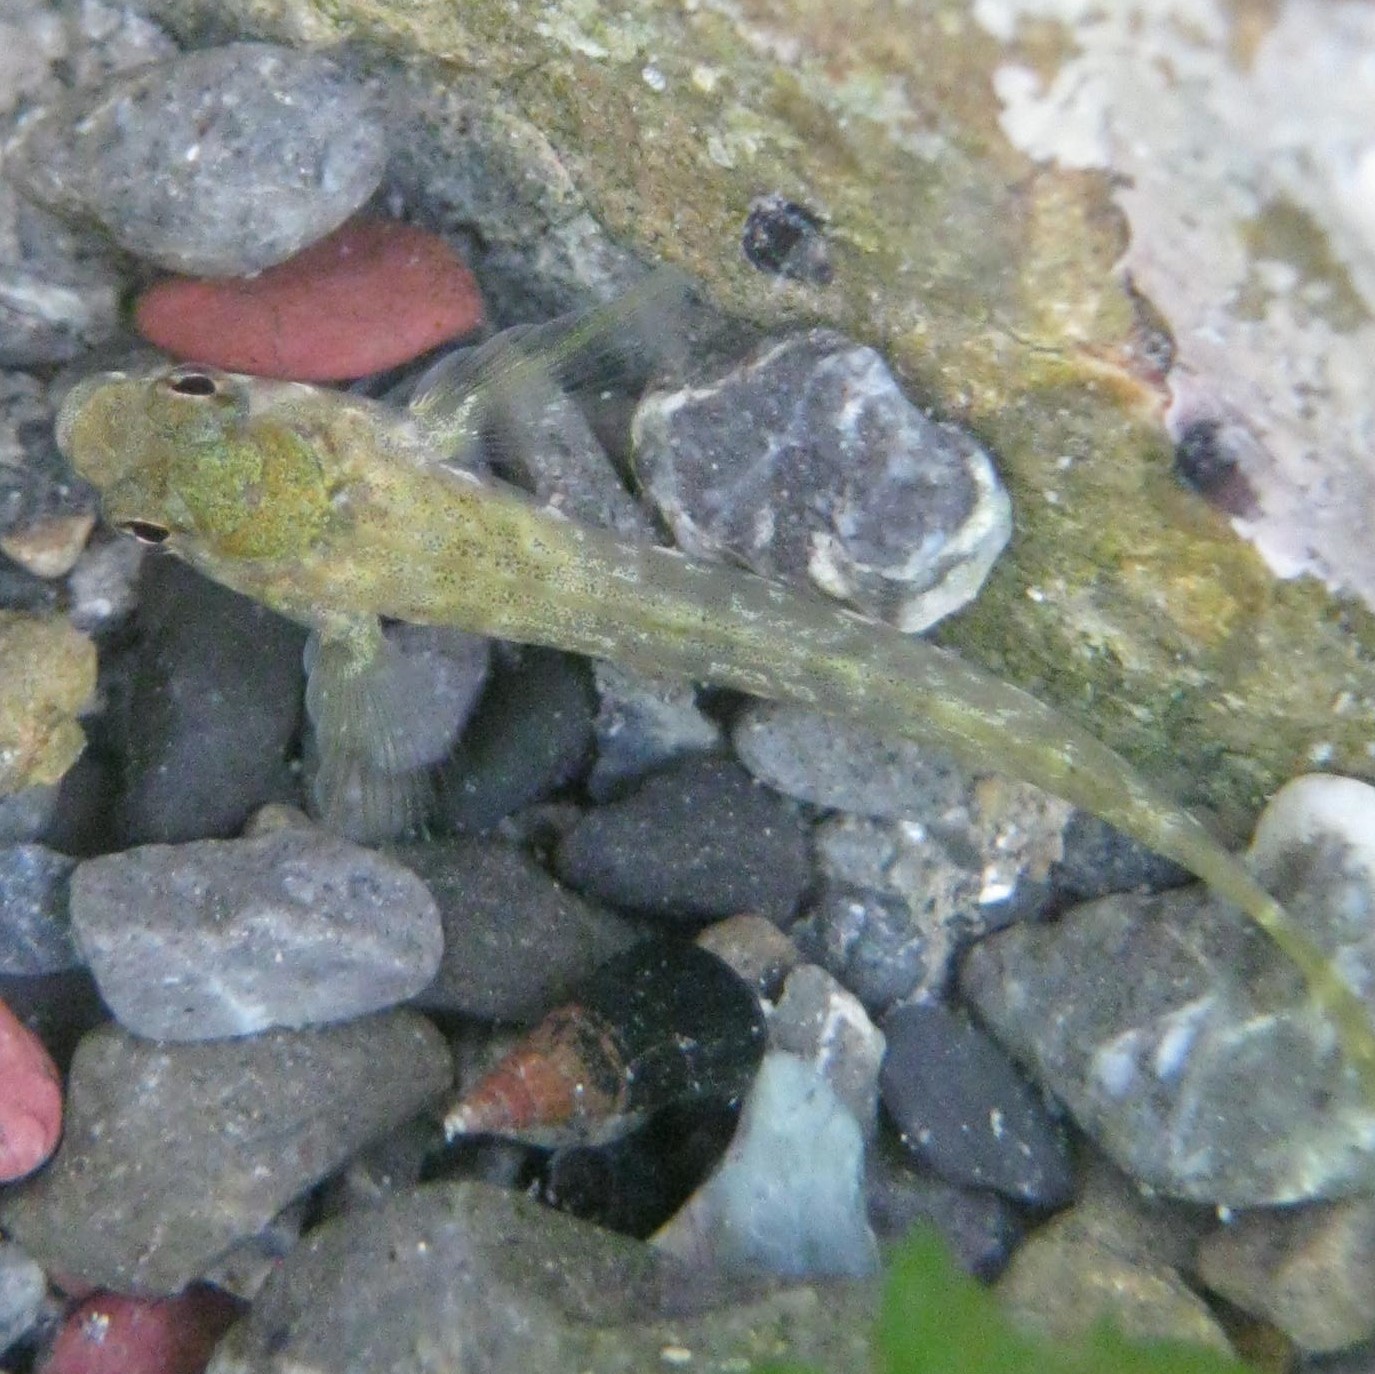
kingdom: Animalia
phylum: Chordata
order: Perciformes
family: Tripterygiidae
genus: Bellapiscis
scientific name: Bellapiscis medius
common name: Twister
